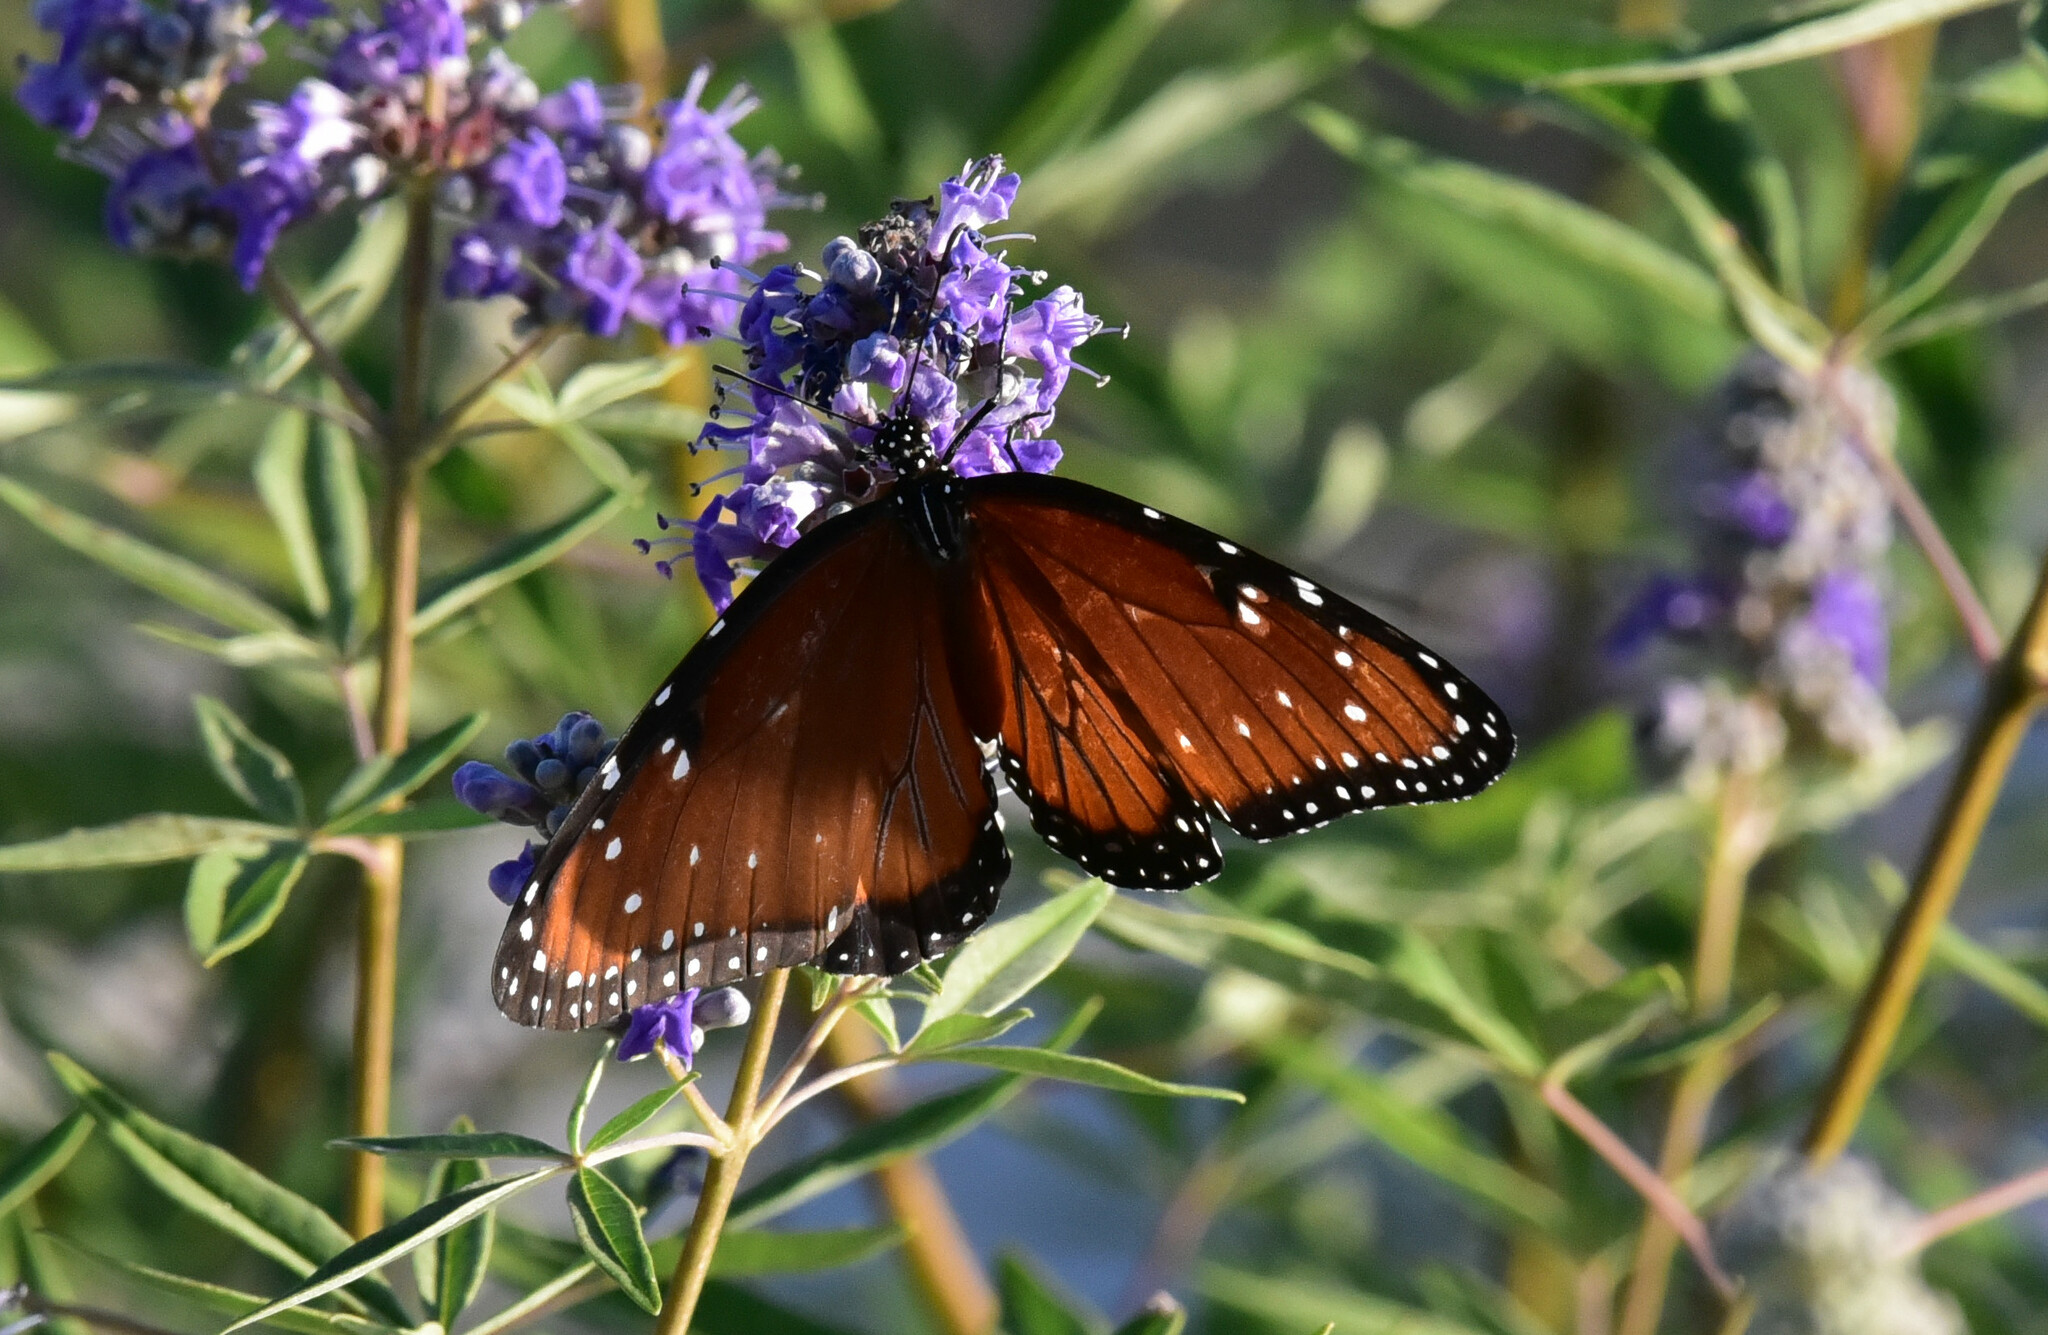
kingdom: Animalia
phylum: Arthropoda
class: Insecta
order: Lepidoptera
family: Nymphalidae
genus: Danaus
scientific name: Danaus gilippus
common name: Queen
